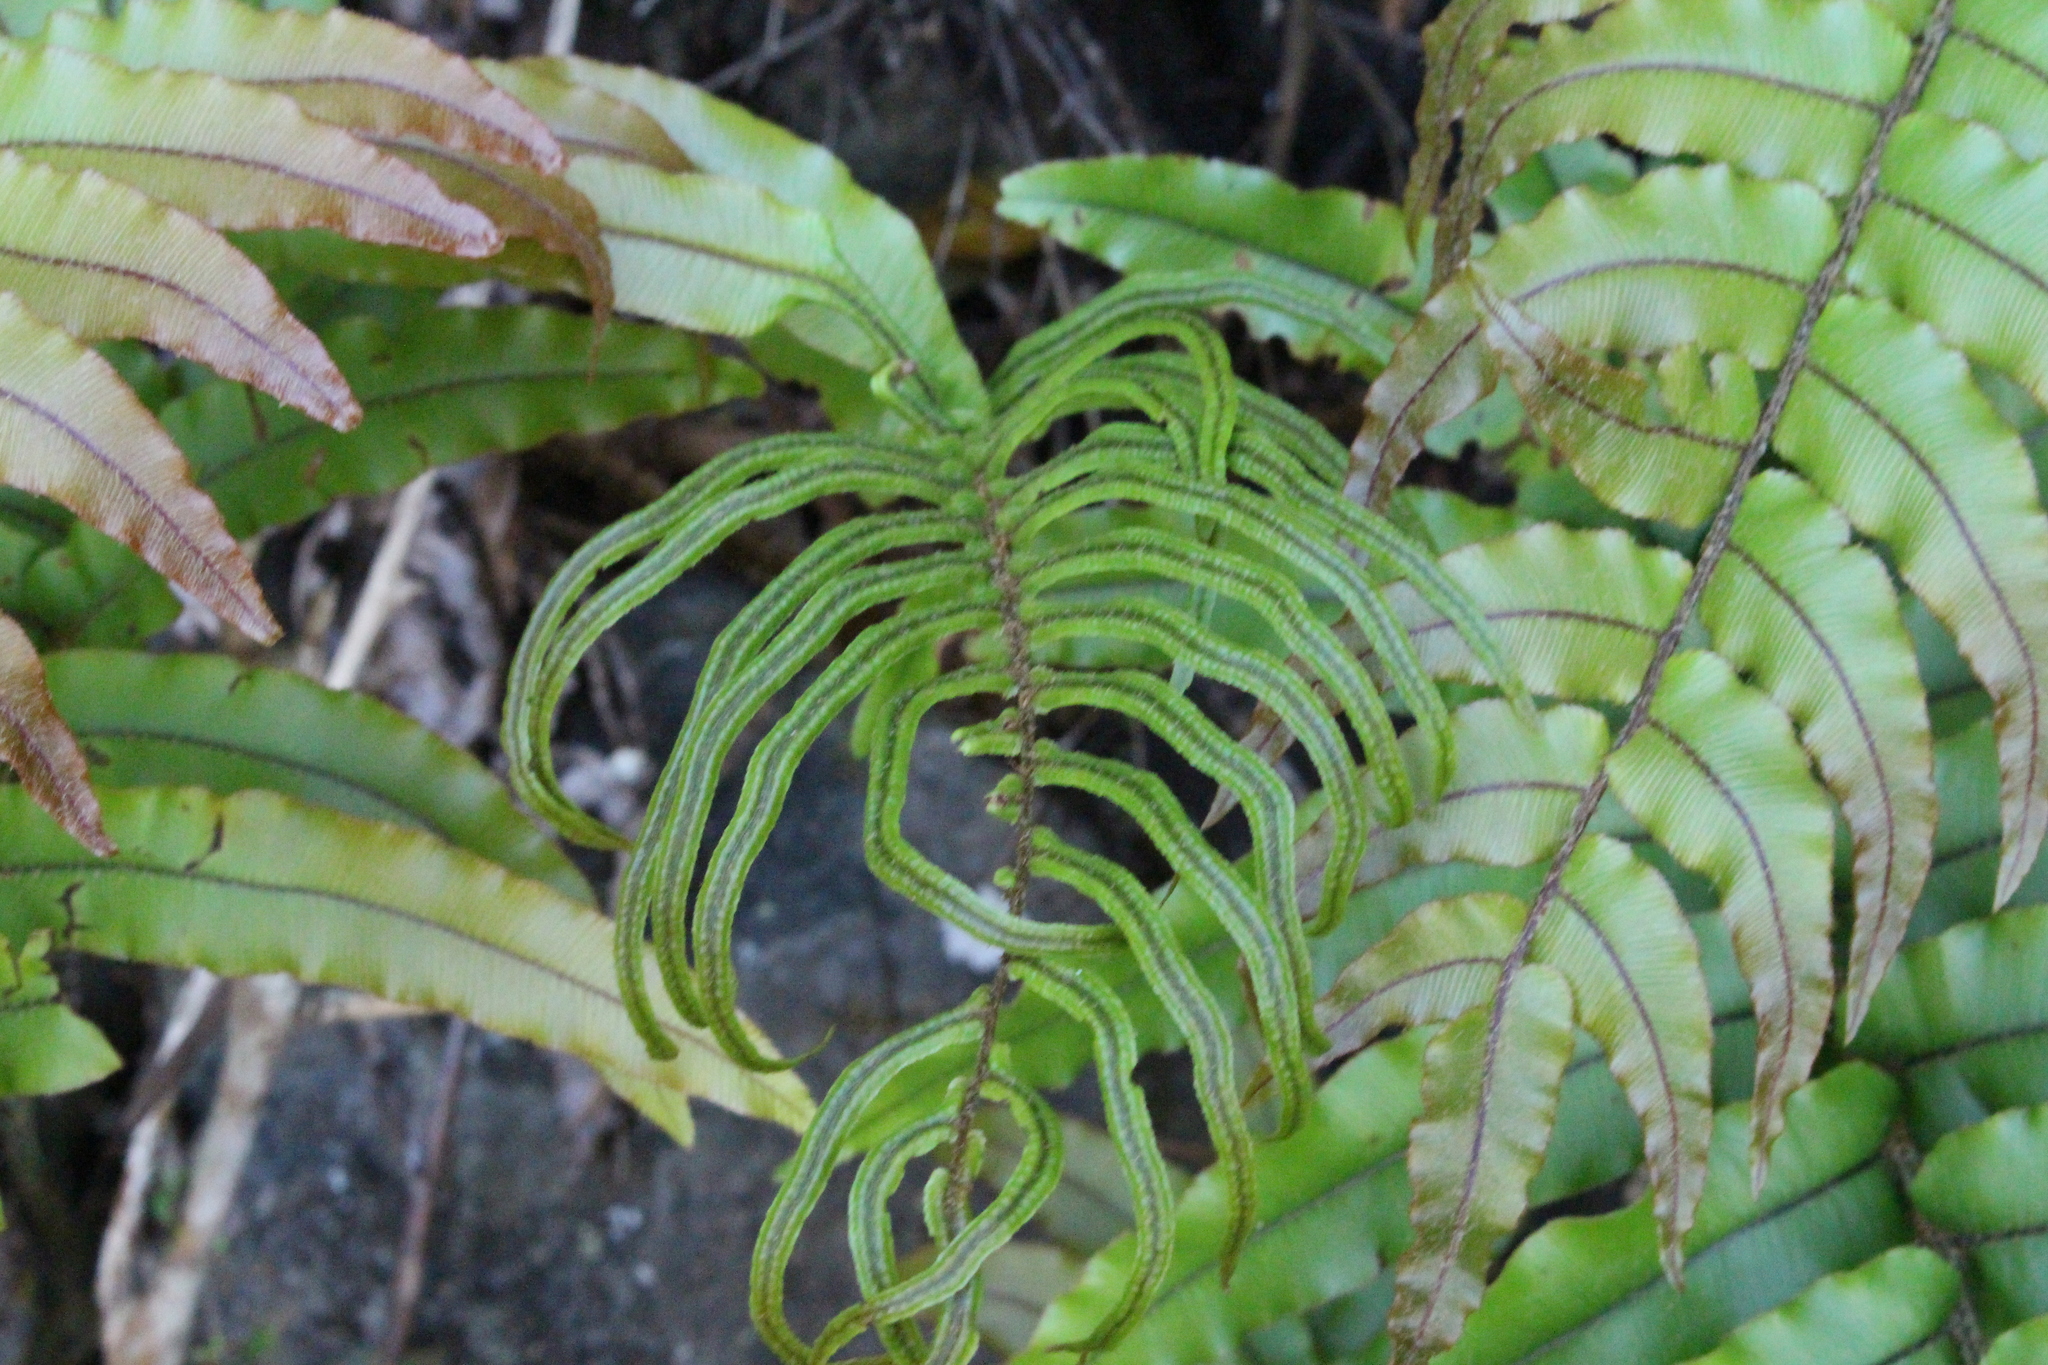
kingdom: Plantae
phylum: Tracheophyta
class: Polypodiopsida
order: Polypodiales
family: Blechnaceae
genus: Parablechnum
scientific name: Parablechnum montanum
